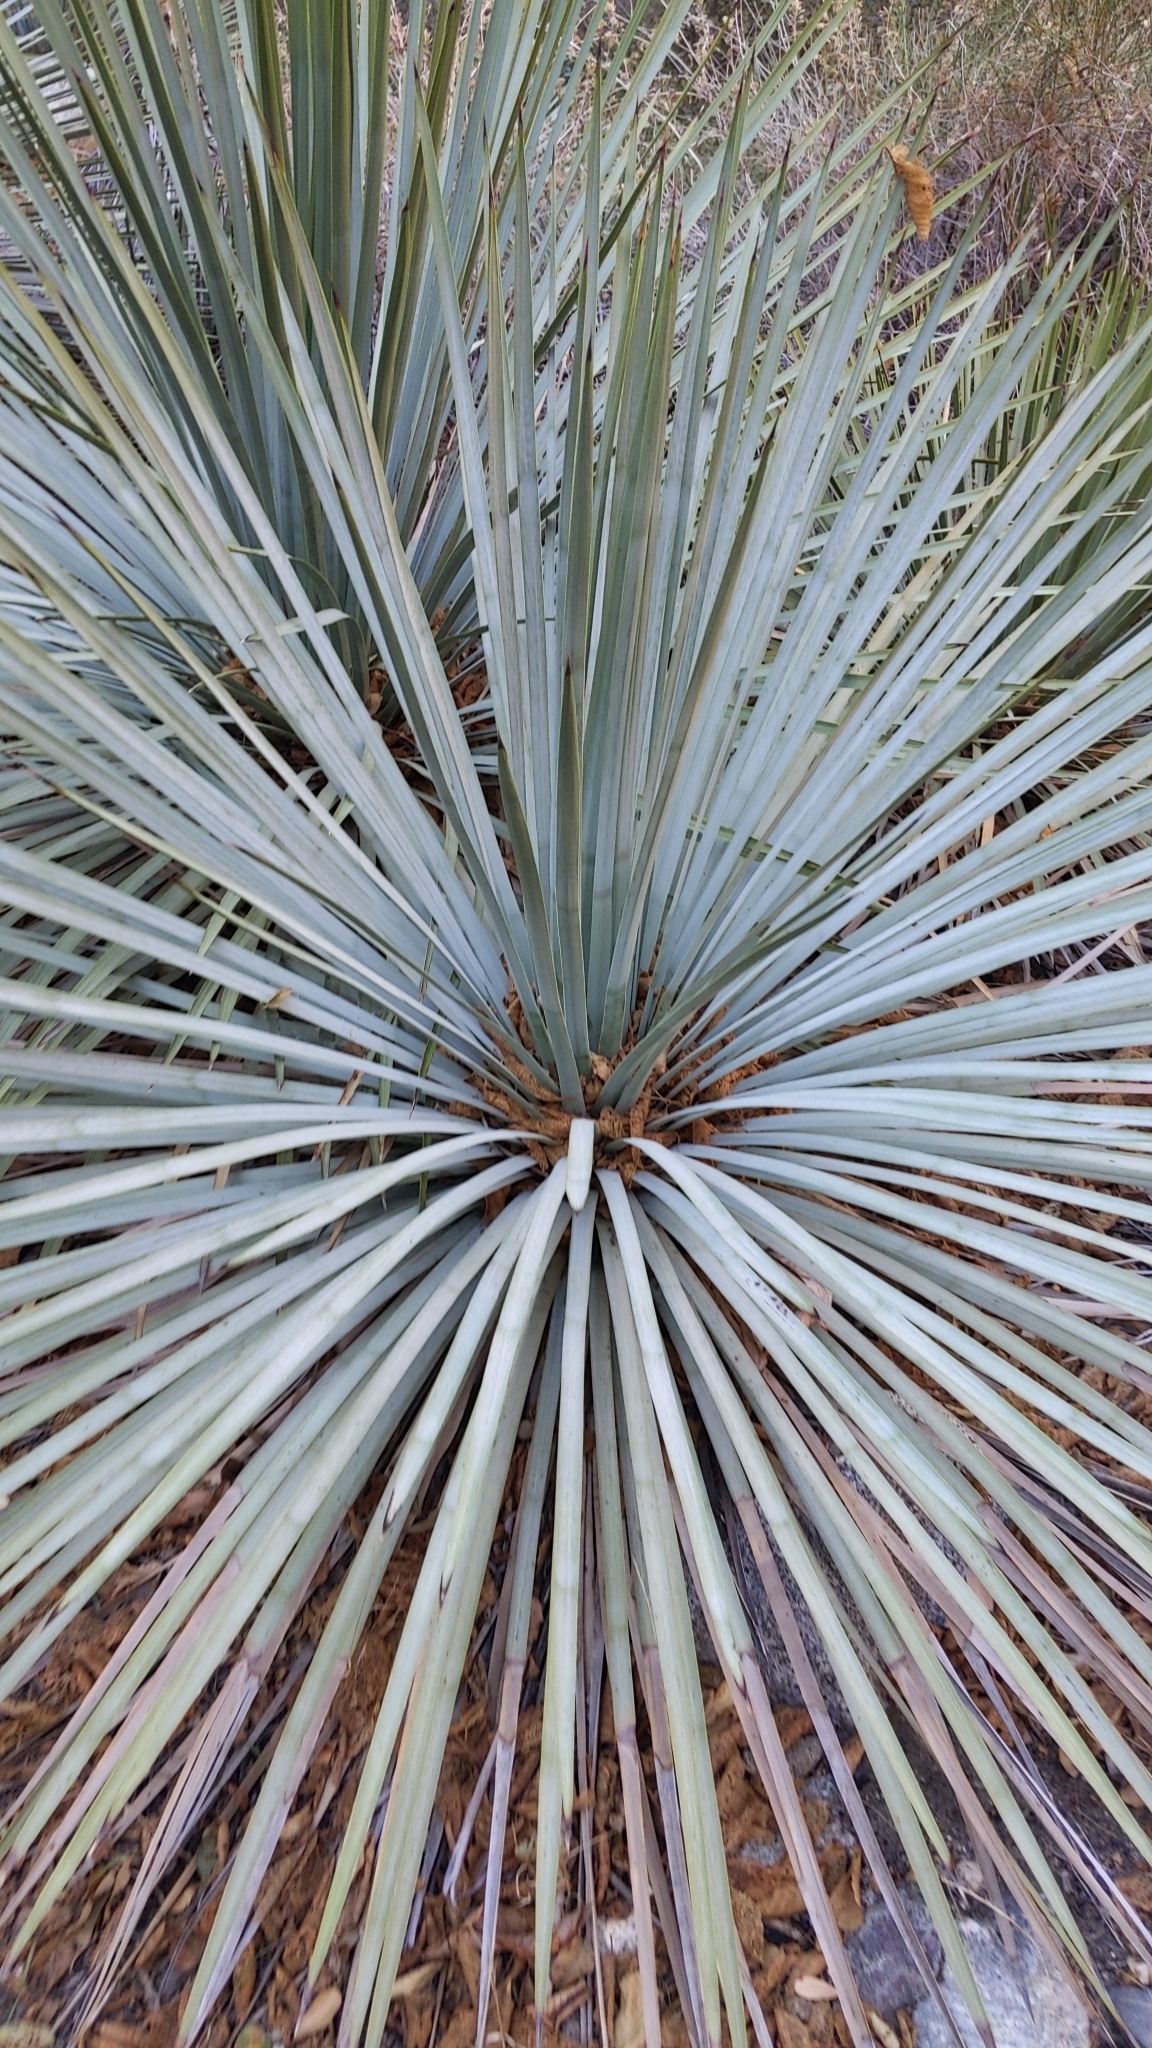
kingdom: Plantae
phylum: Tracheophyta
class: Liliopsida
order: Asparagales
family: Asparagaceae
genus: Hesperoyucca
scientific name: Hesperoyucca whipplei
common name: Our lord's-candle
